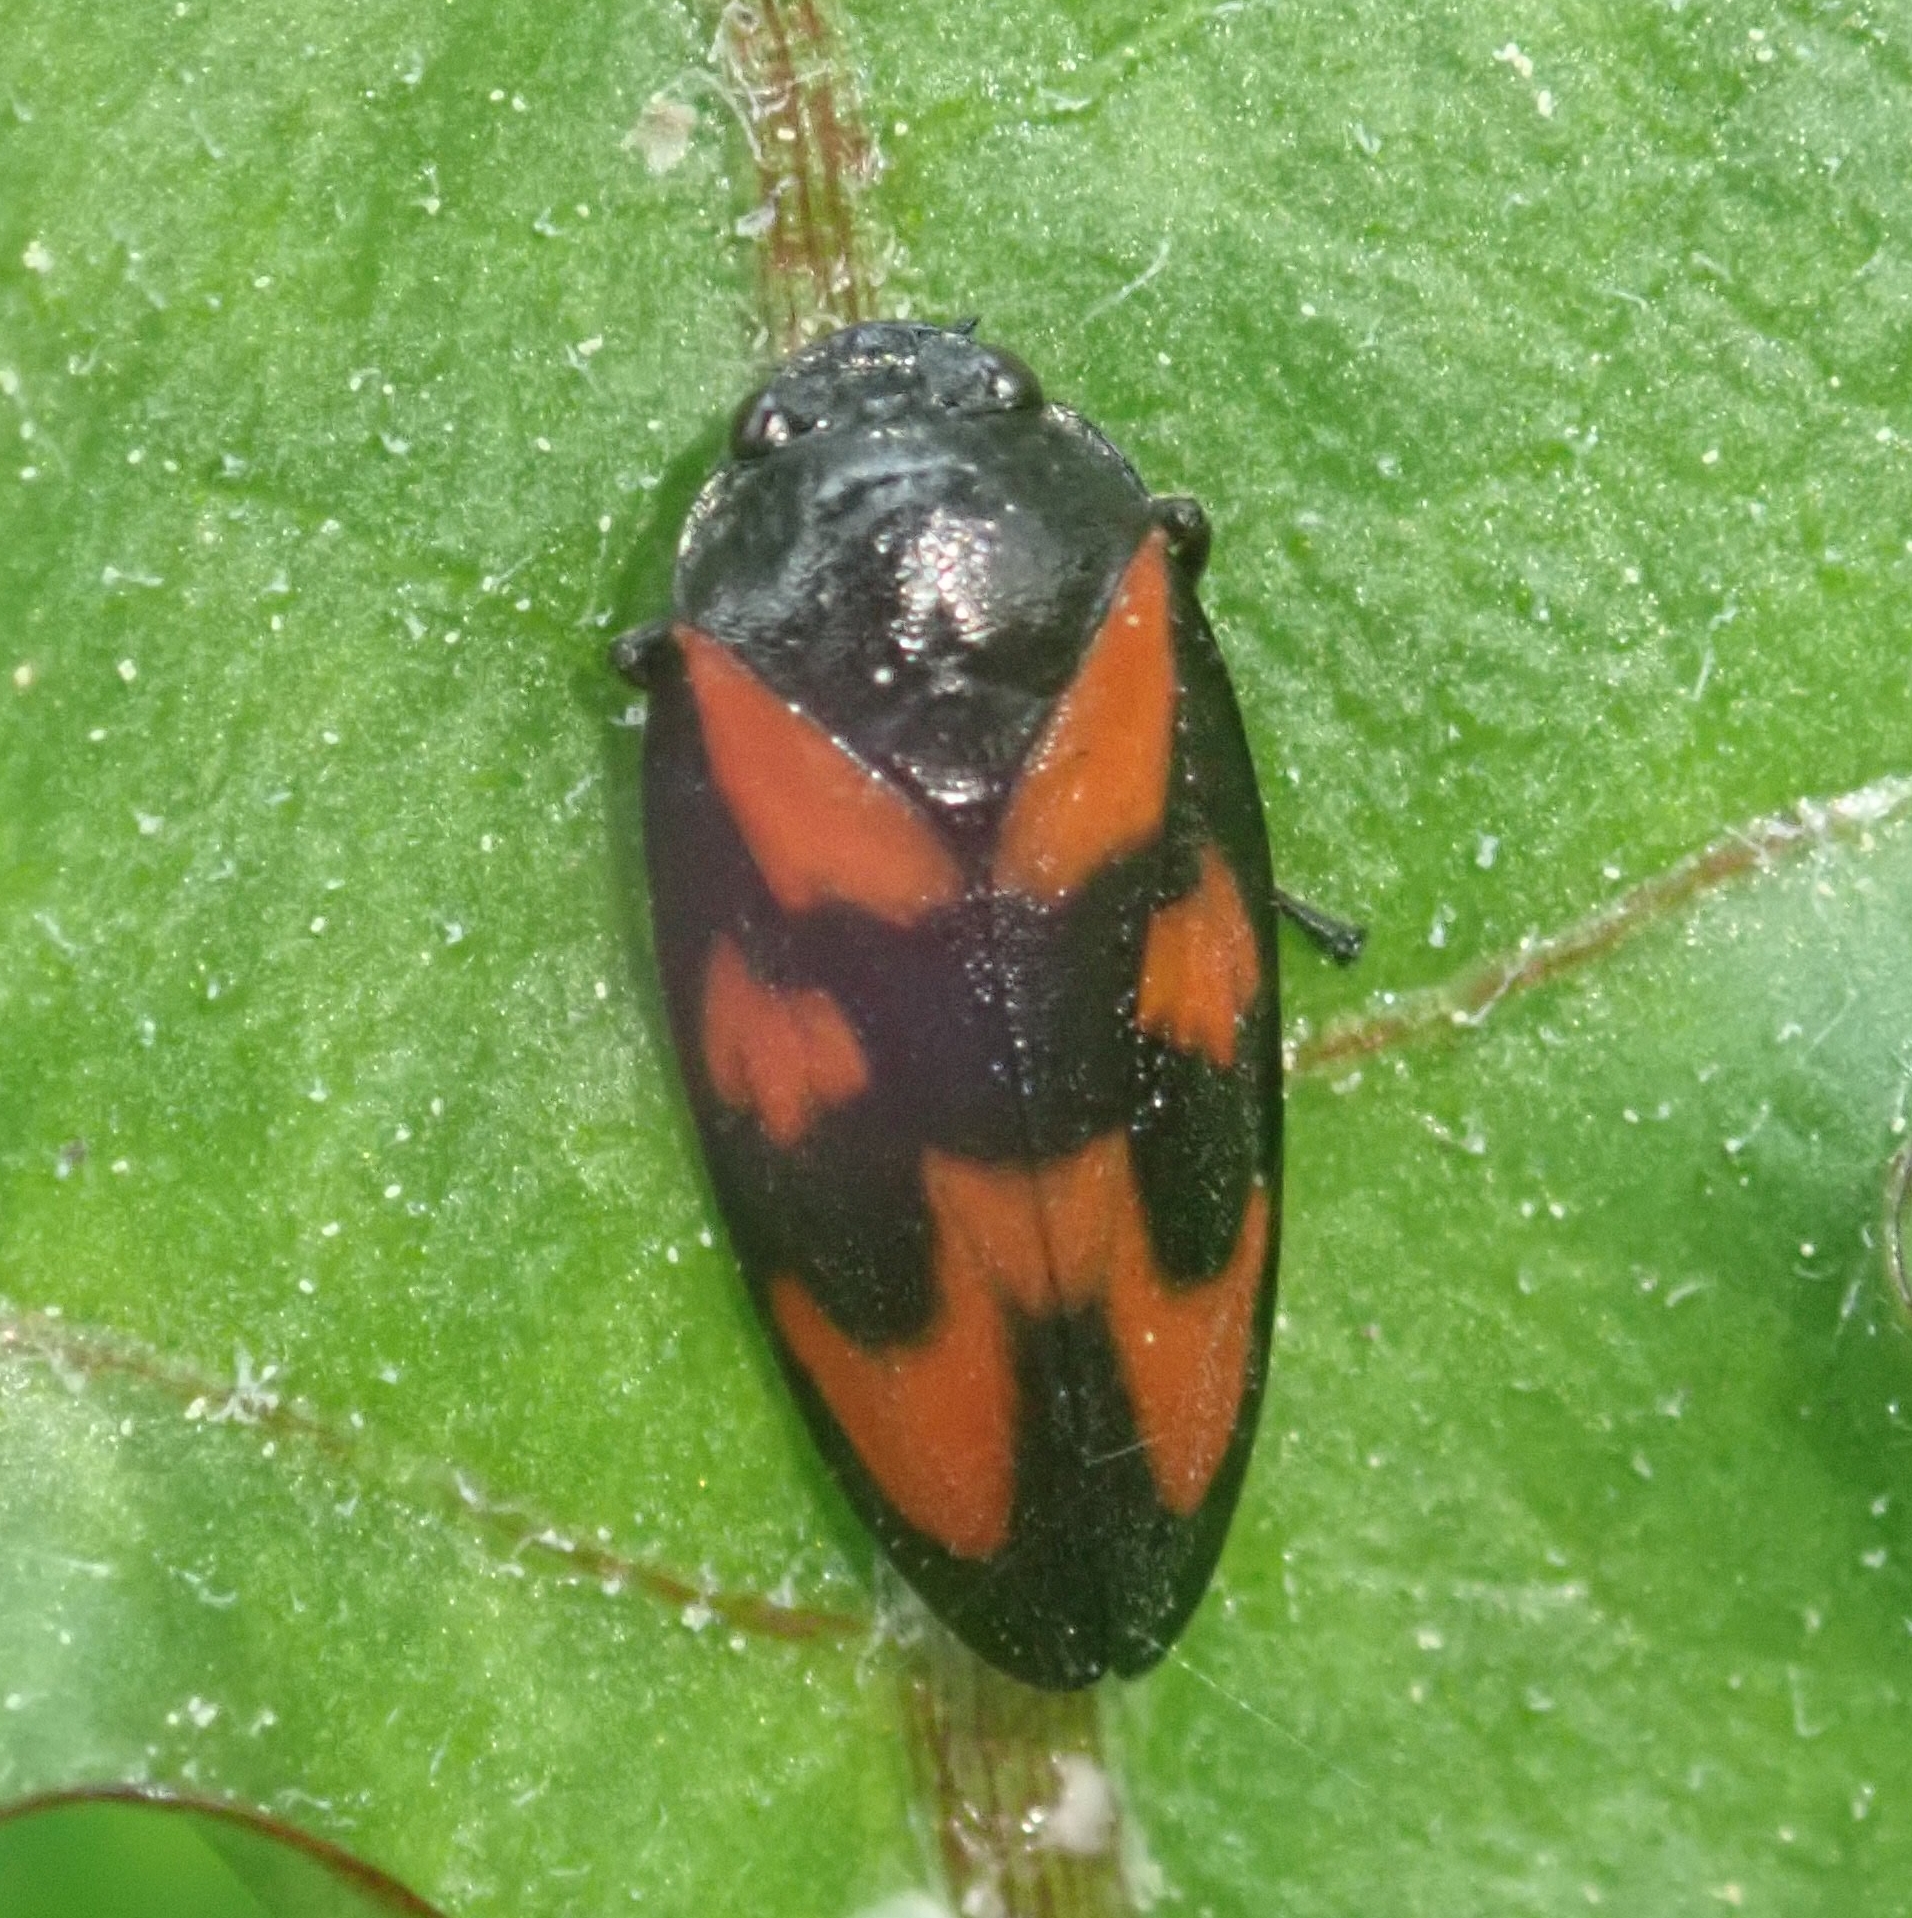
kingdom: Animalia
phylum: Arthropoda
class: Insecta
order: Hemiptera
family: Cercopidae
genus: Cercopis
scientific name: Cercopis vulnerata
